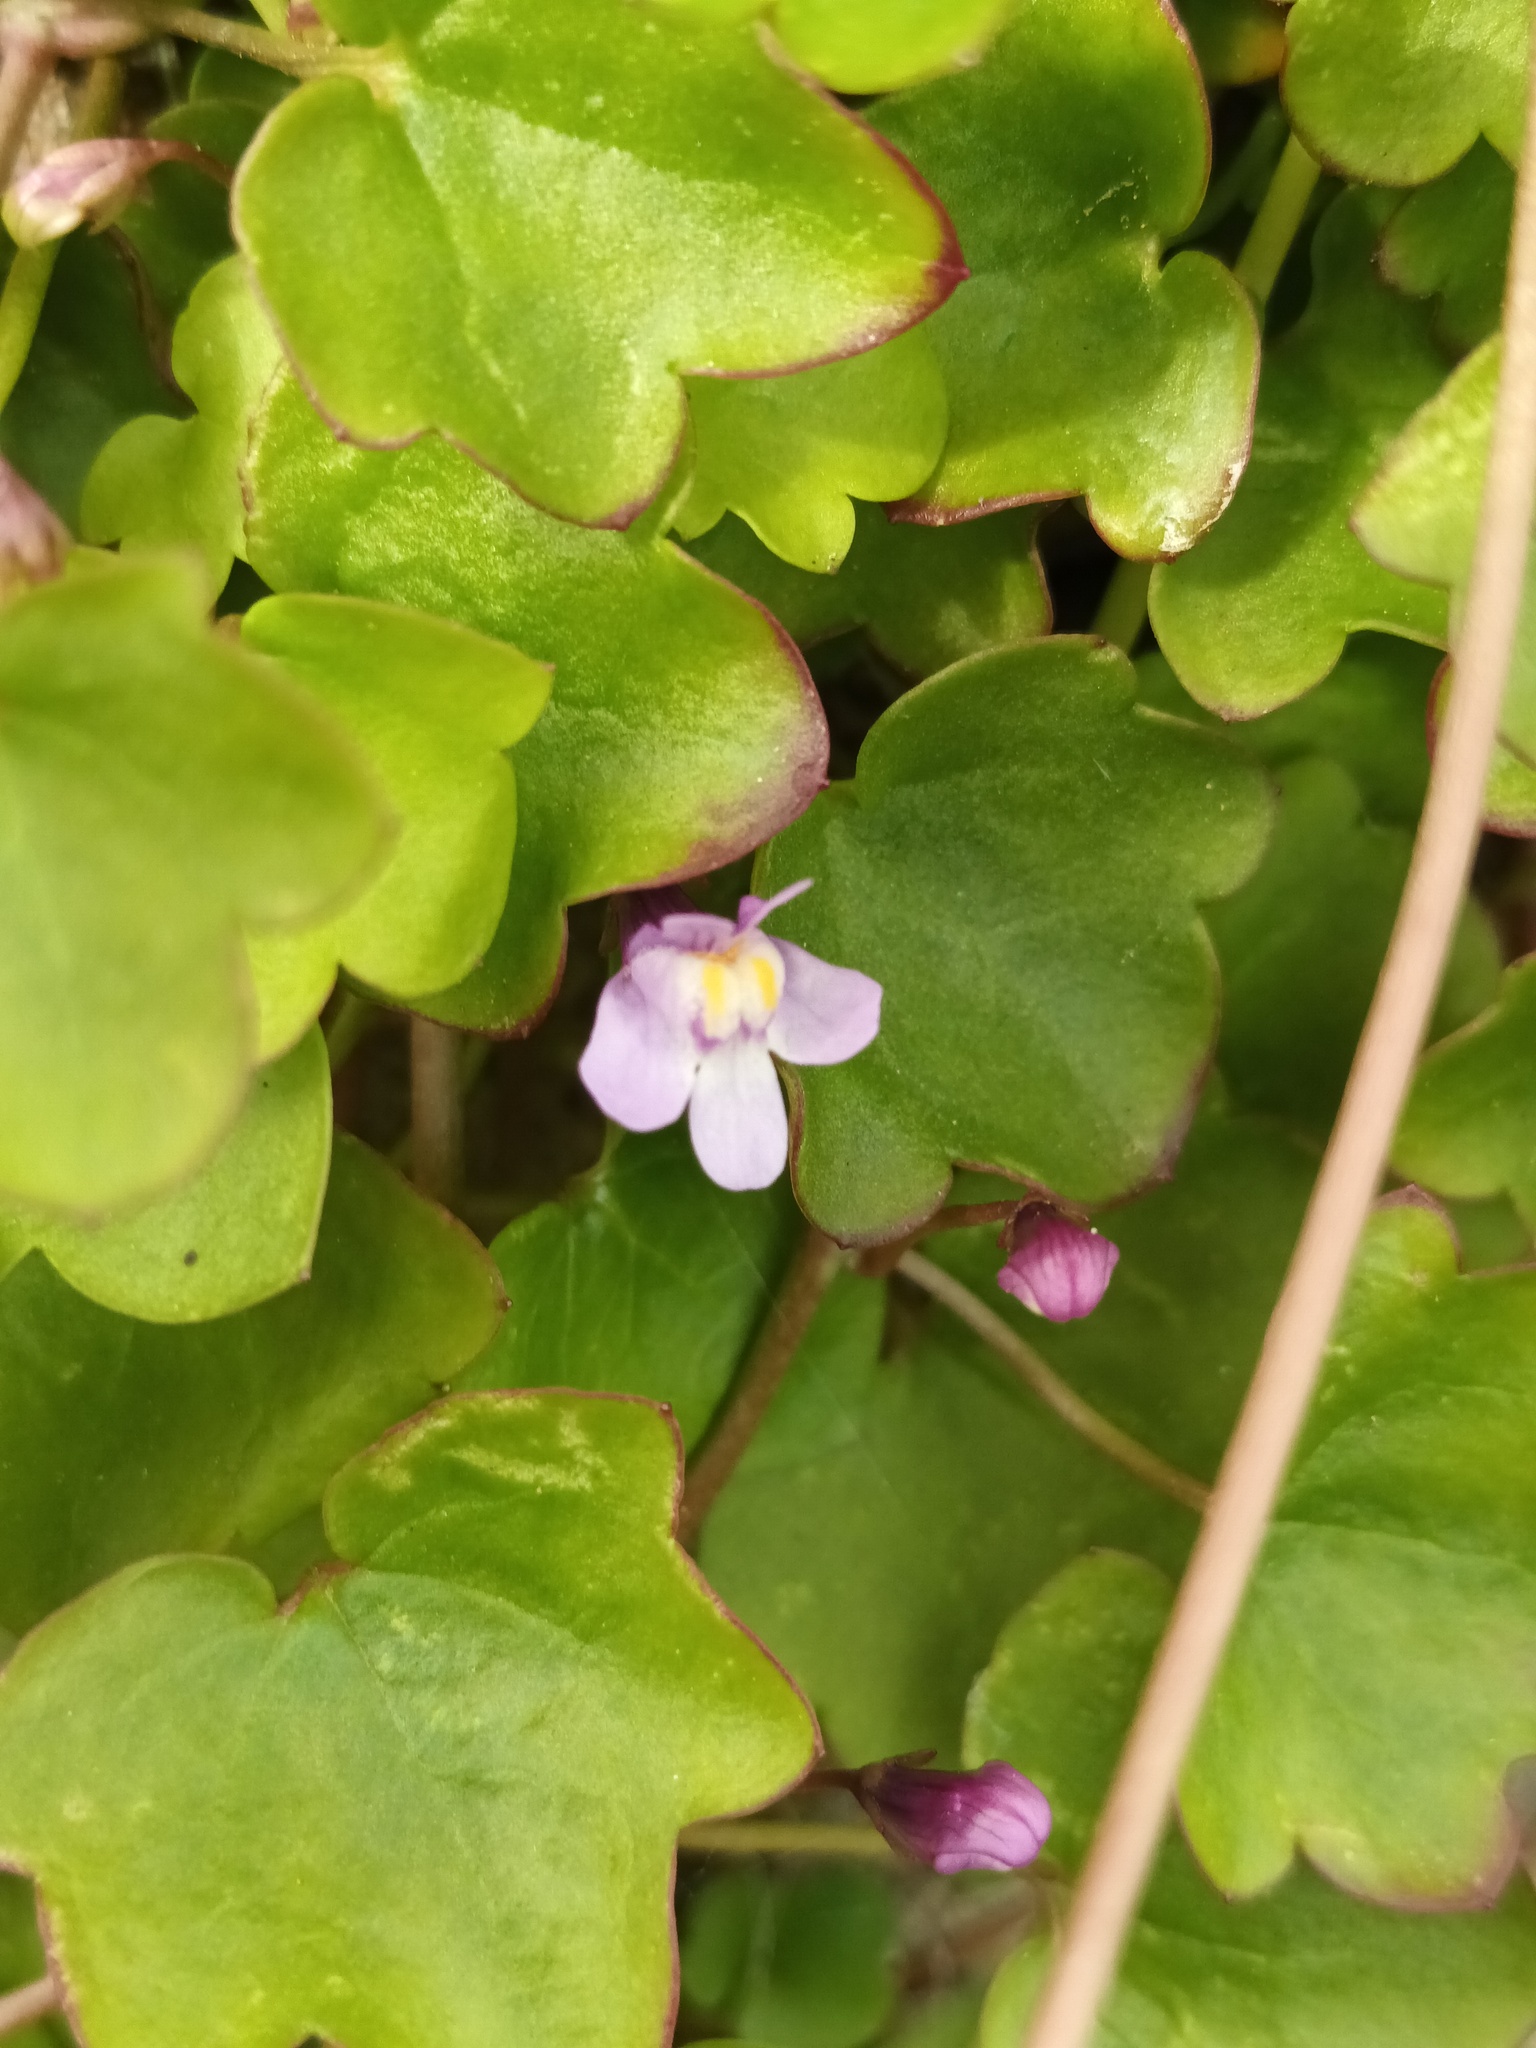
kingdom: Plantae
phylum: Tracheophyta
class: Magnoliopsida
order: Lamiales
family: Plantaginaceae
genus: Cymbalaria
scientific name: Cymbalaria muralis
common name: Ivy-leaved toadflax
